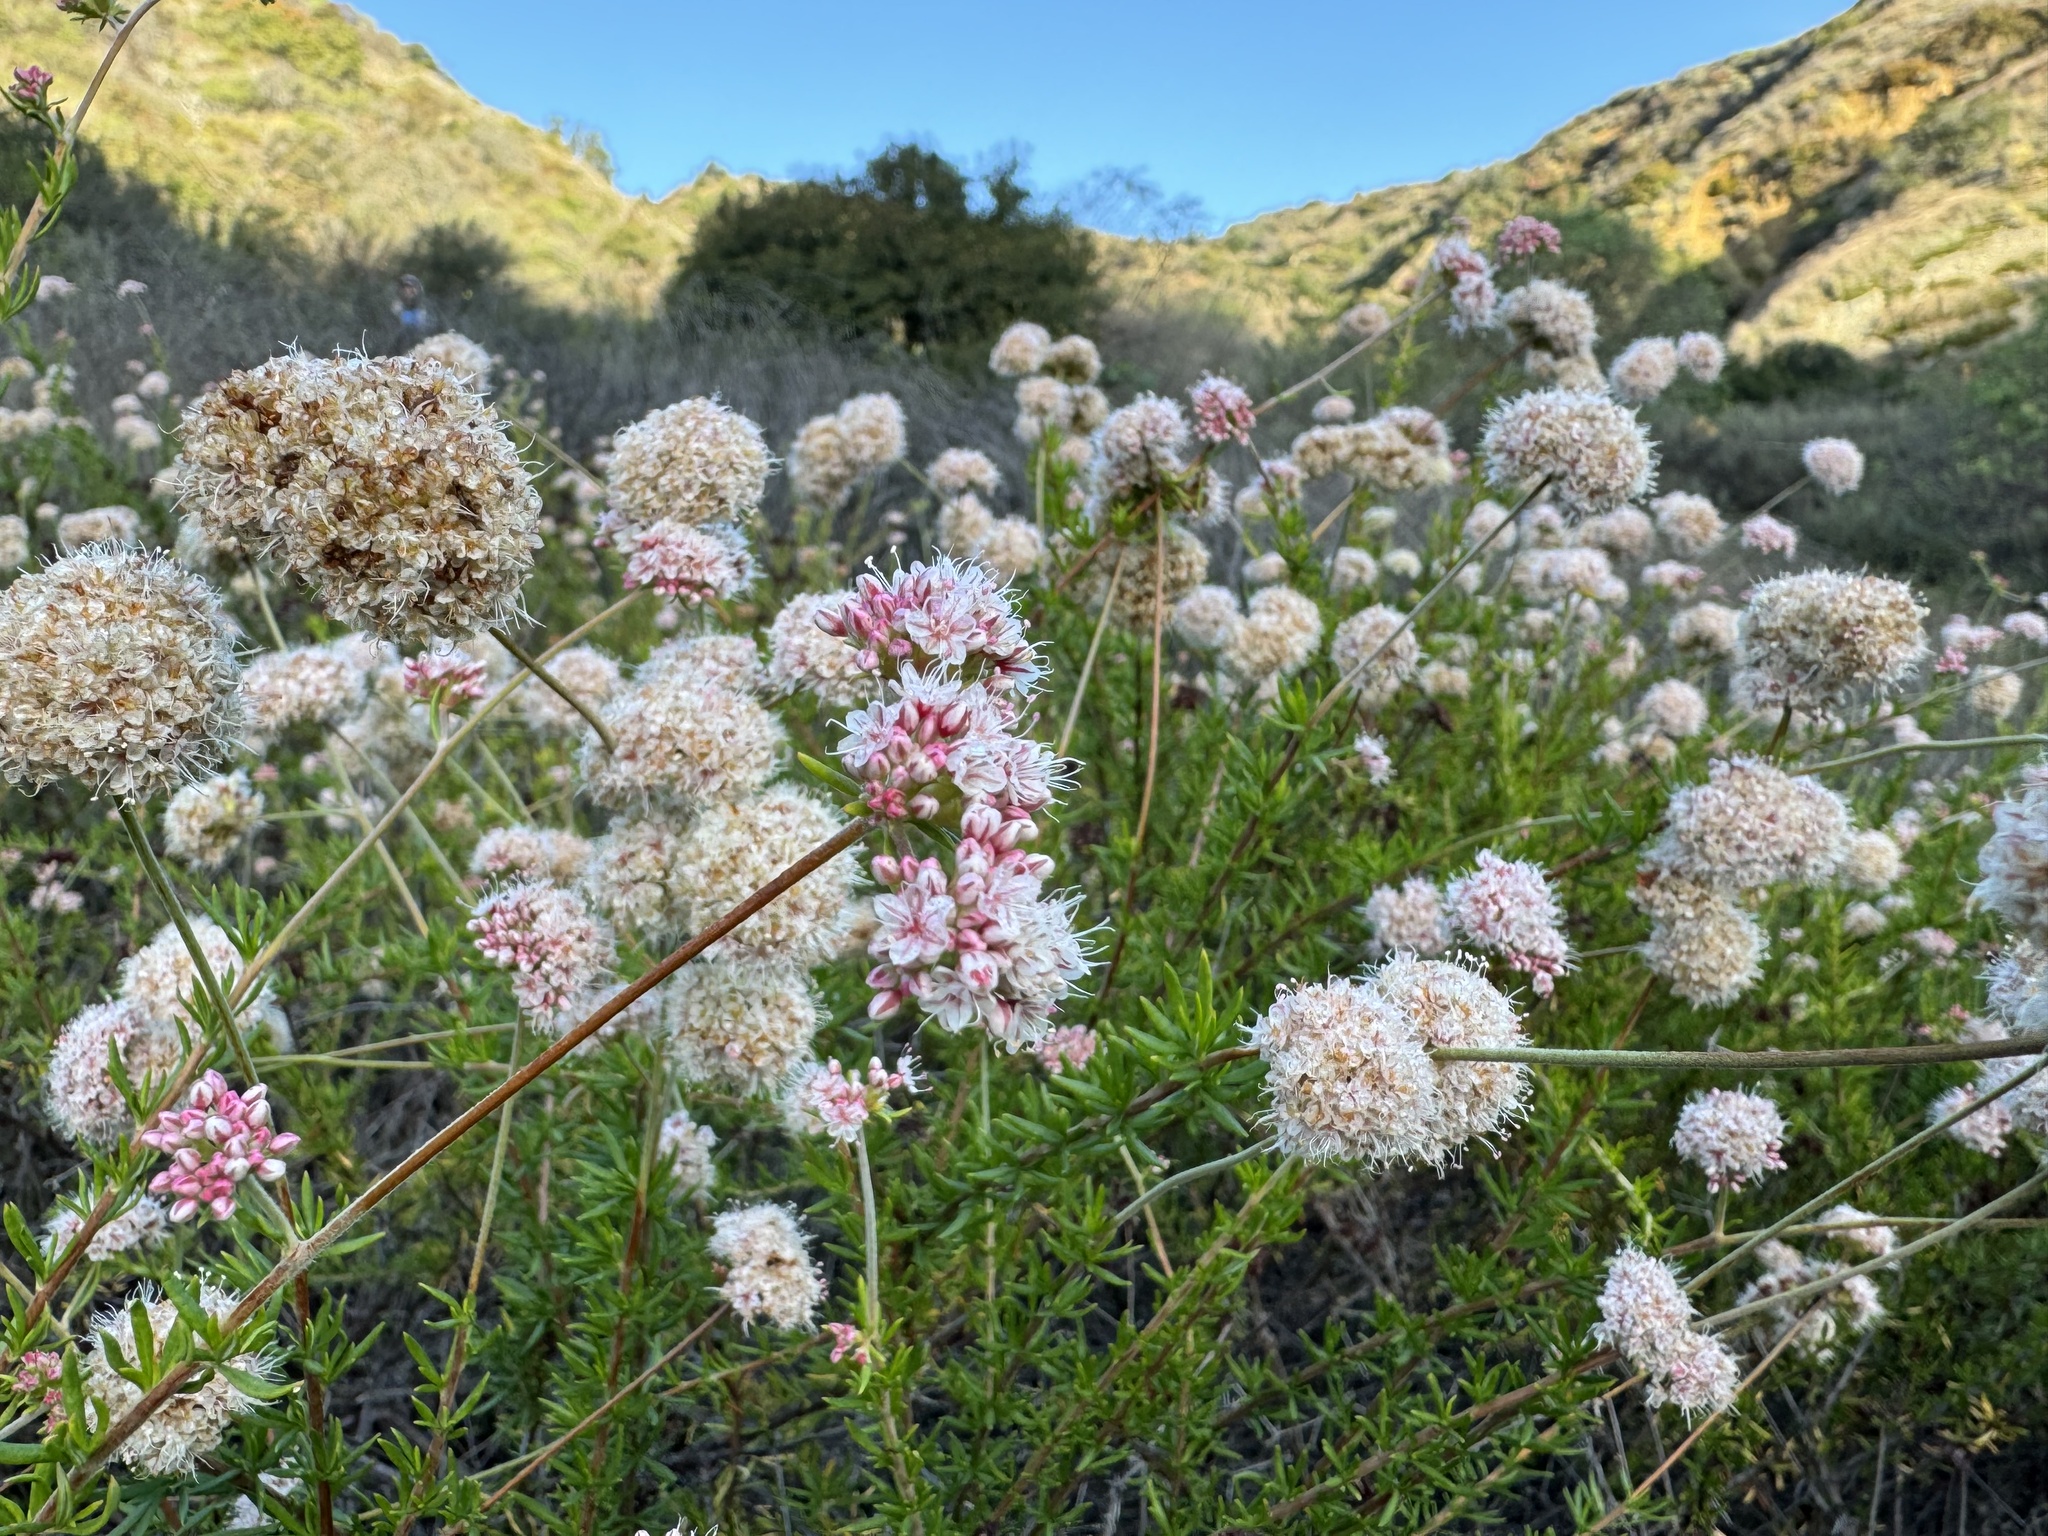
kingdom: Plantae
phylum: Tracheophyta
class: Magnoliopsida
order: Caryophyllales
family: Polygonaceae
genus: Eriogonum
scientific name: Eriogonum fasciculatum
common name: California wild buckwheat
